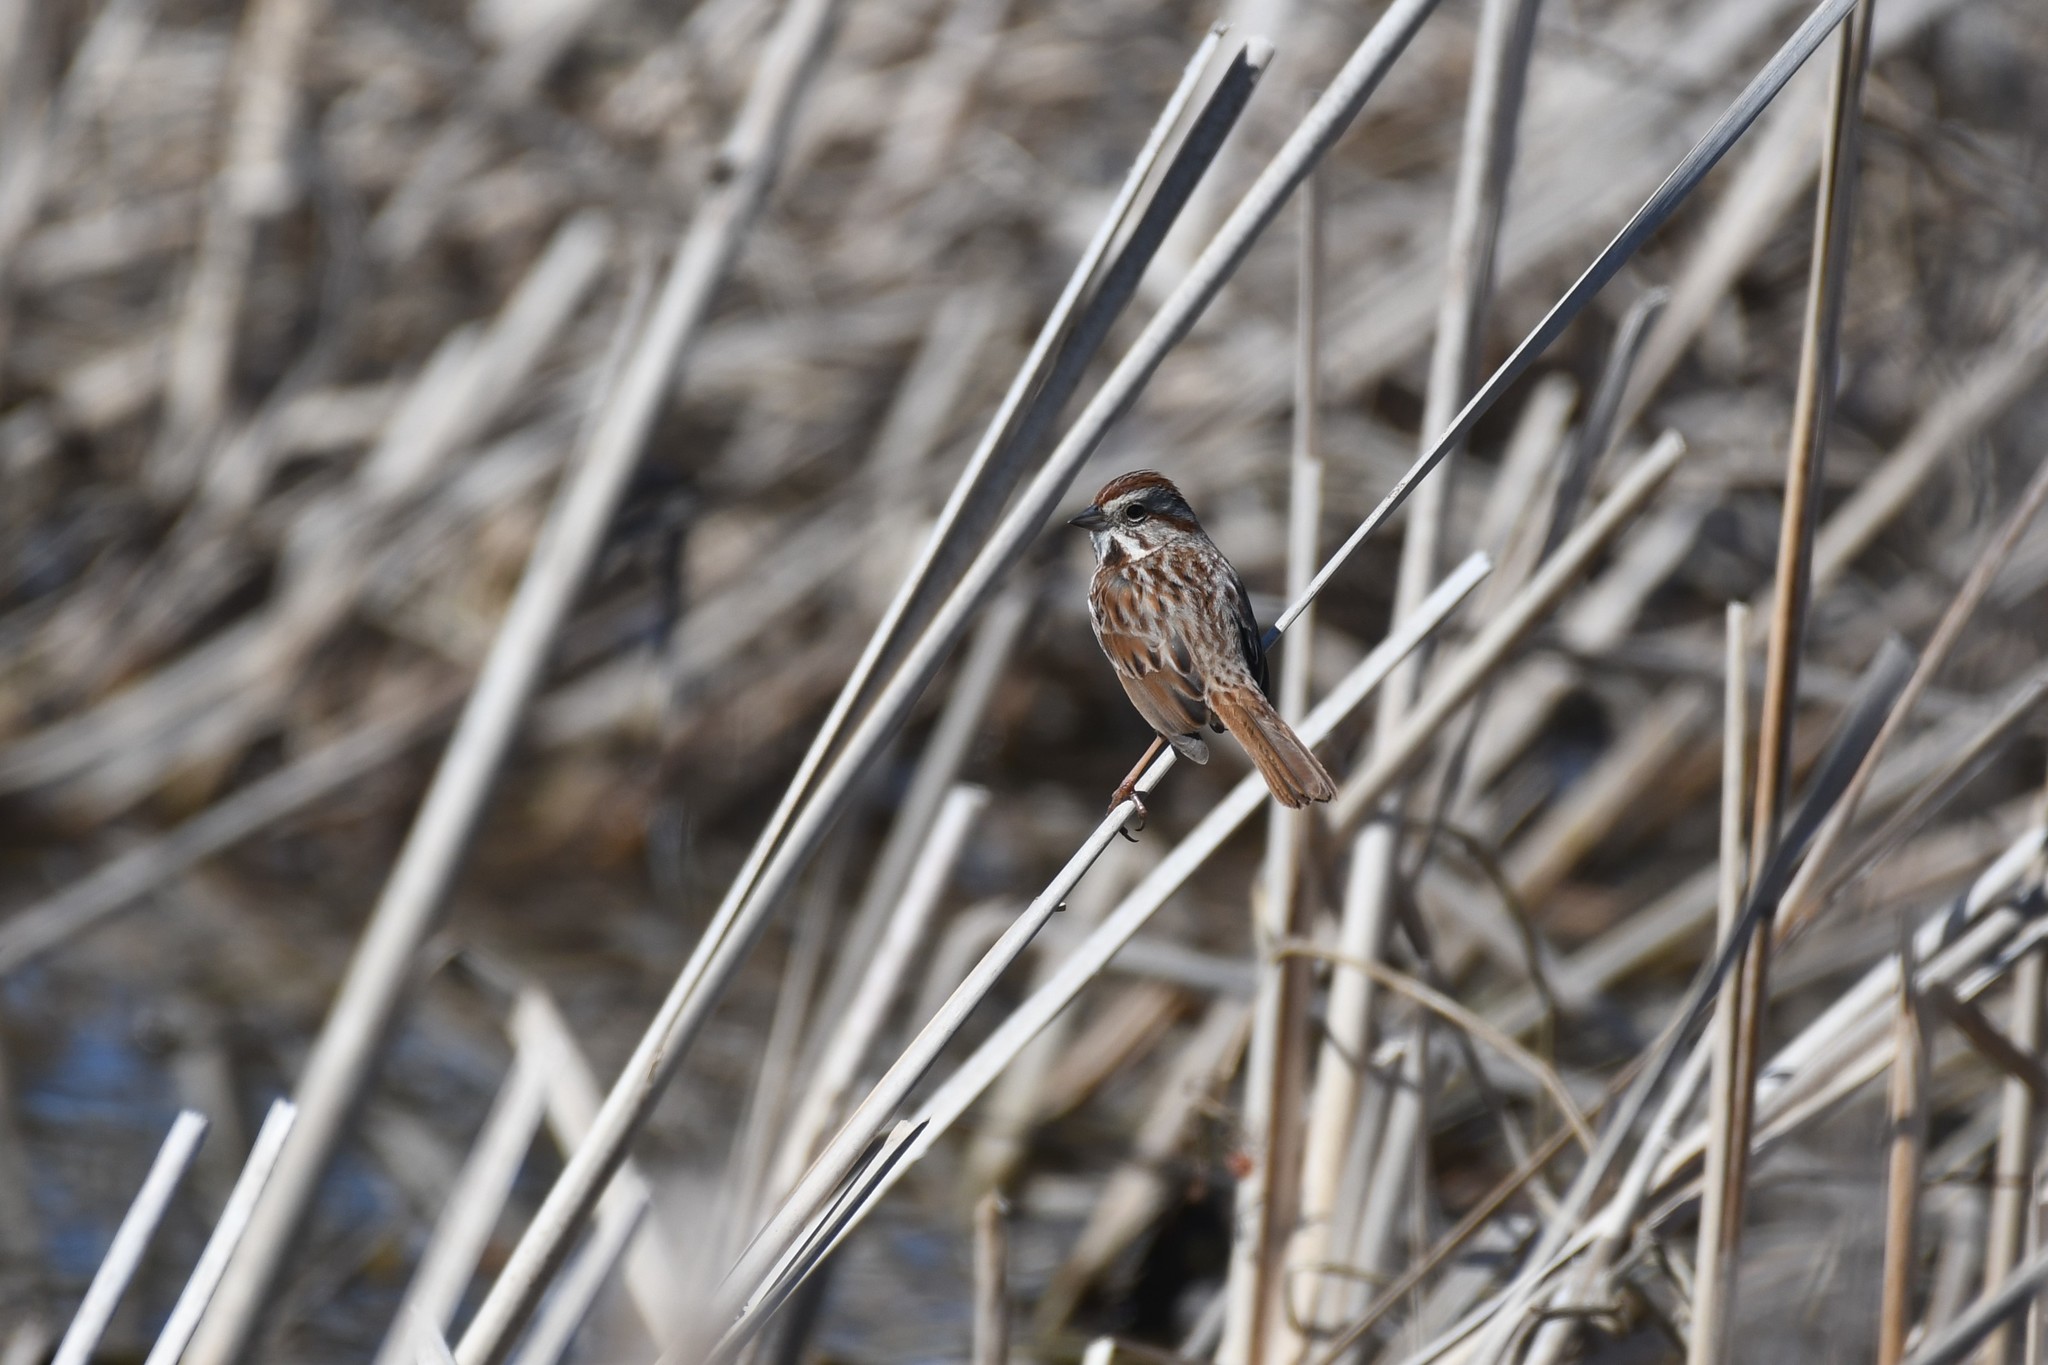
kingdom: Animalia
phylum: Chordata
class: Aves
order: Passeriformes
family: Passerellidae
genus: Melospiza
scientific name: Melospiza melodia
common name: Song sparrow
